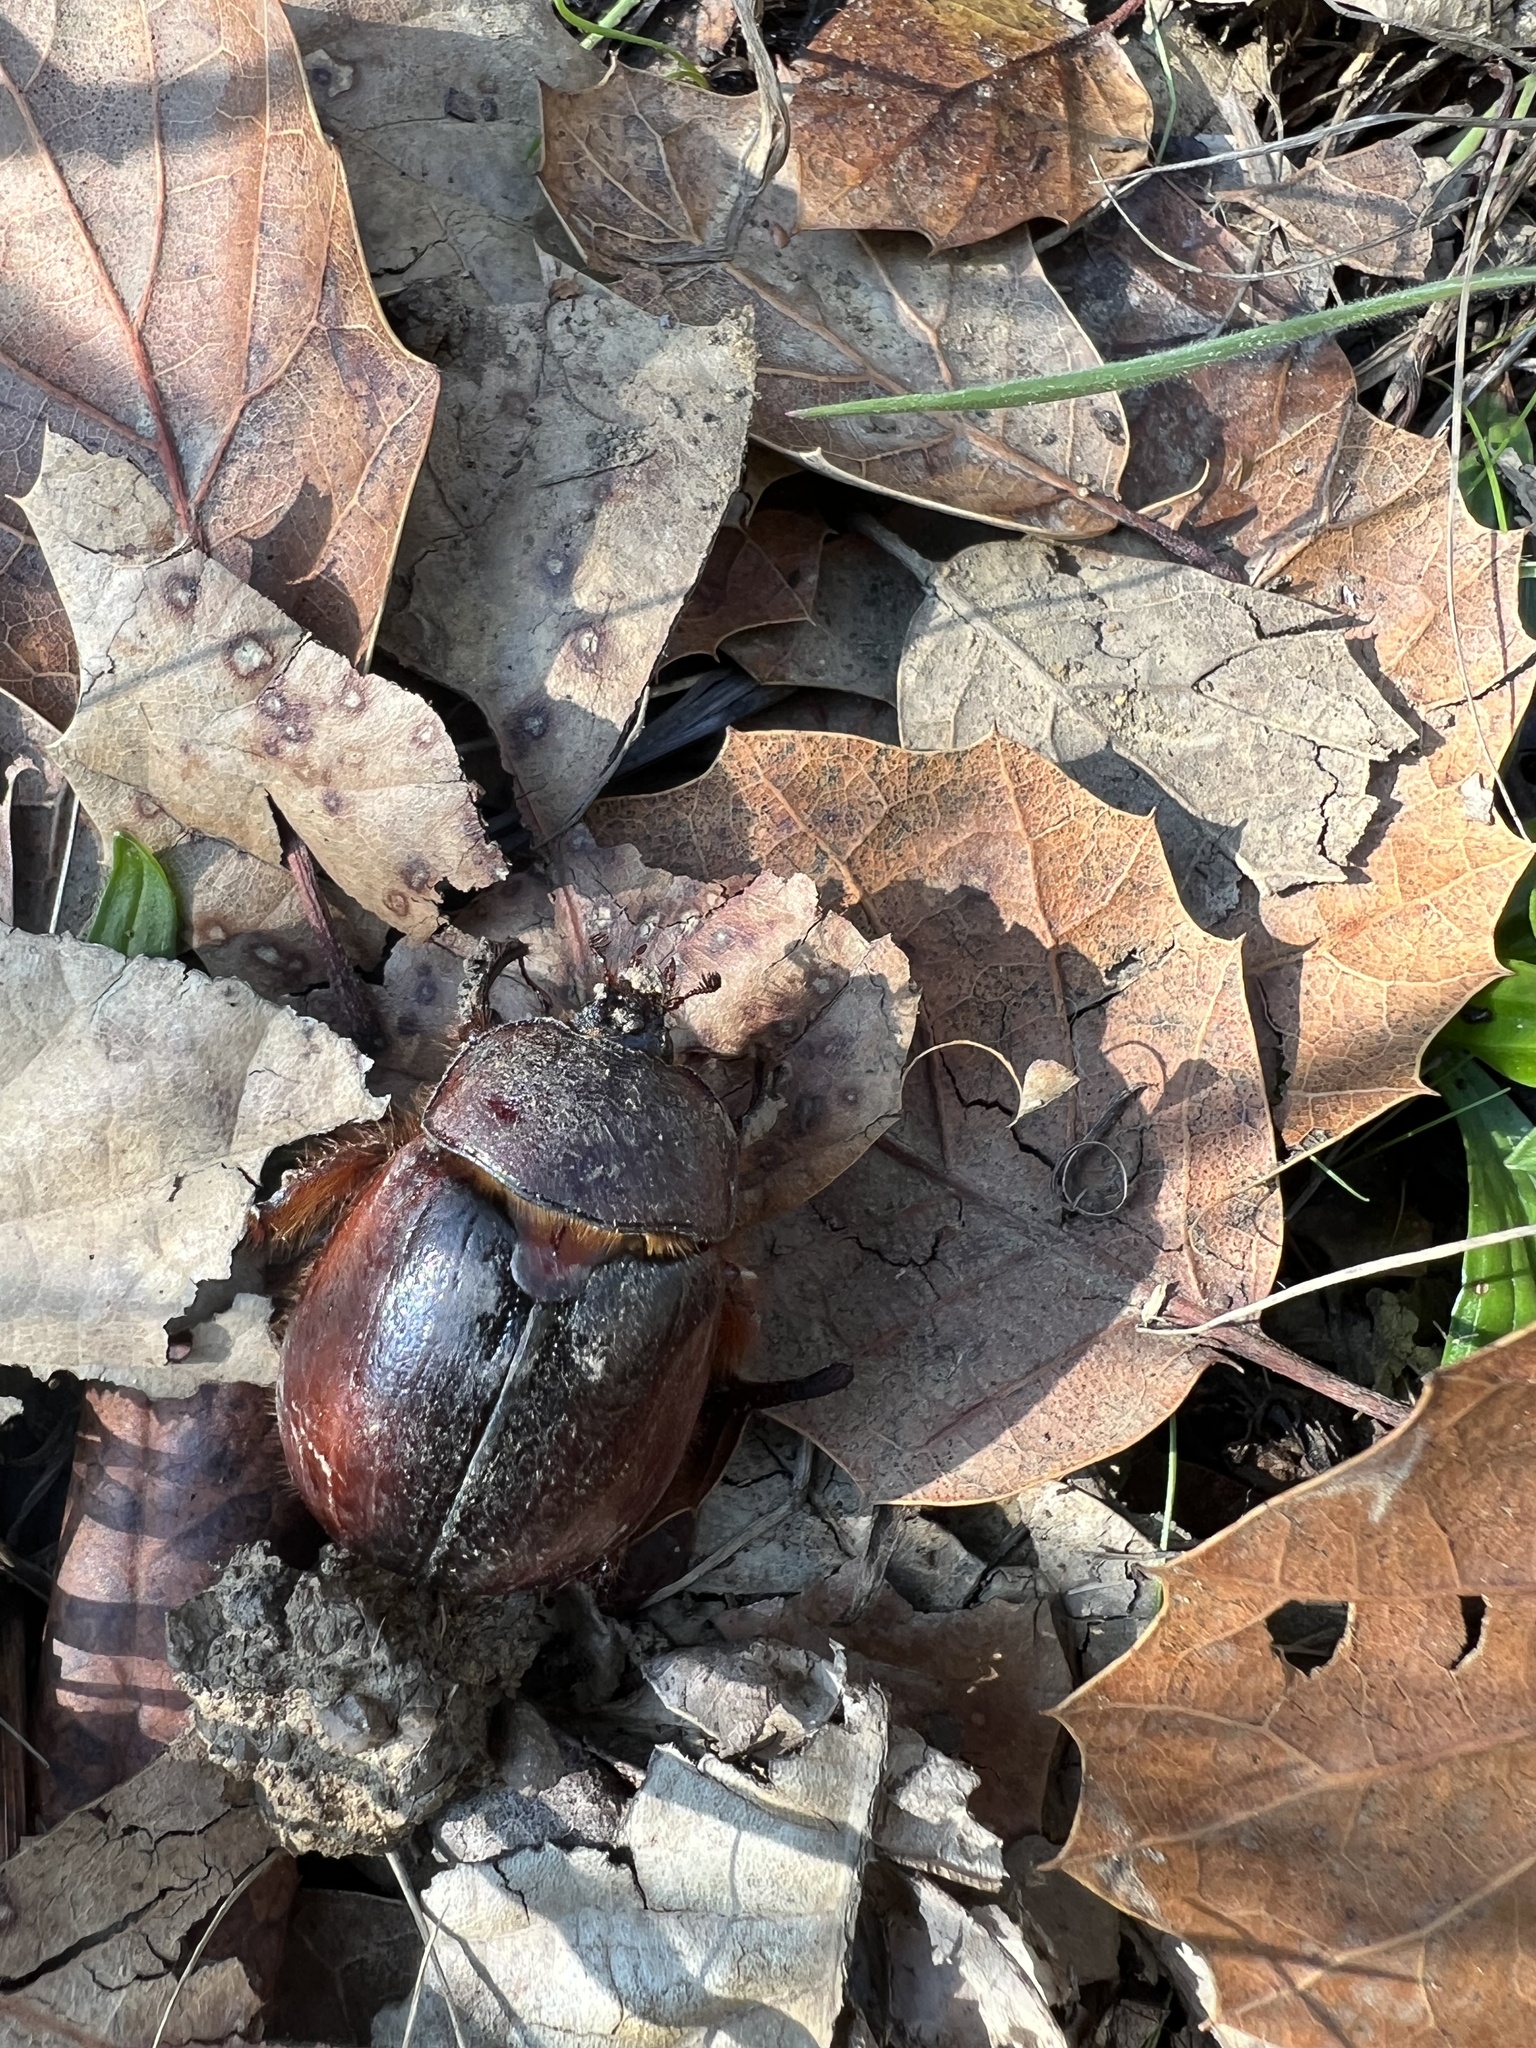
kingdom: Animalia
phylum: Arthropoda
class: Insecta
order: Coleoptera
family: Pleocomidae
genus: Pleocoma
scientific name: Pleocoma behrensi
